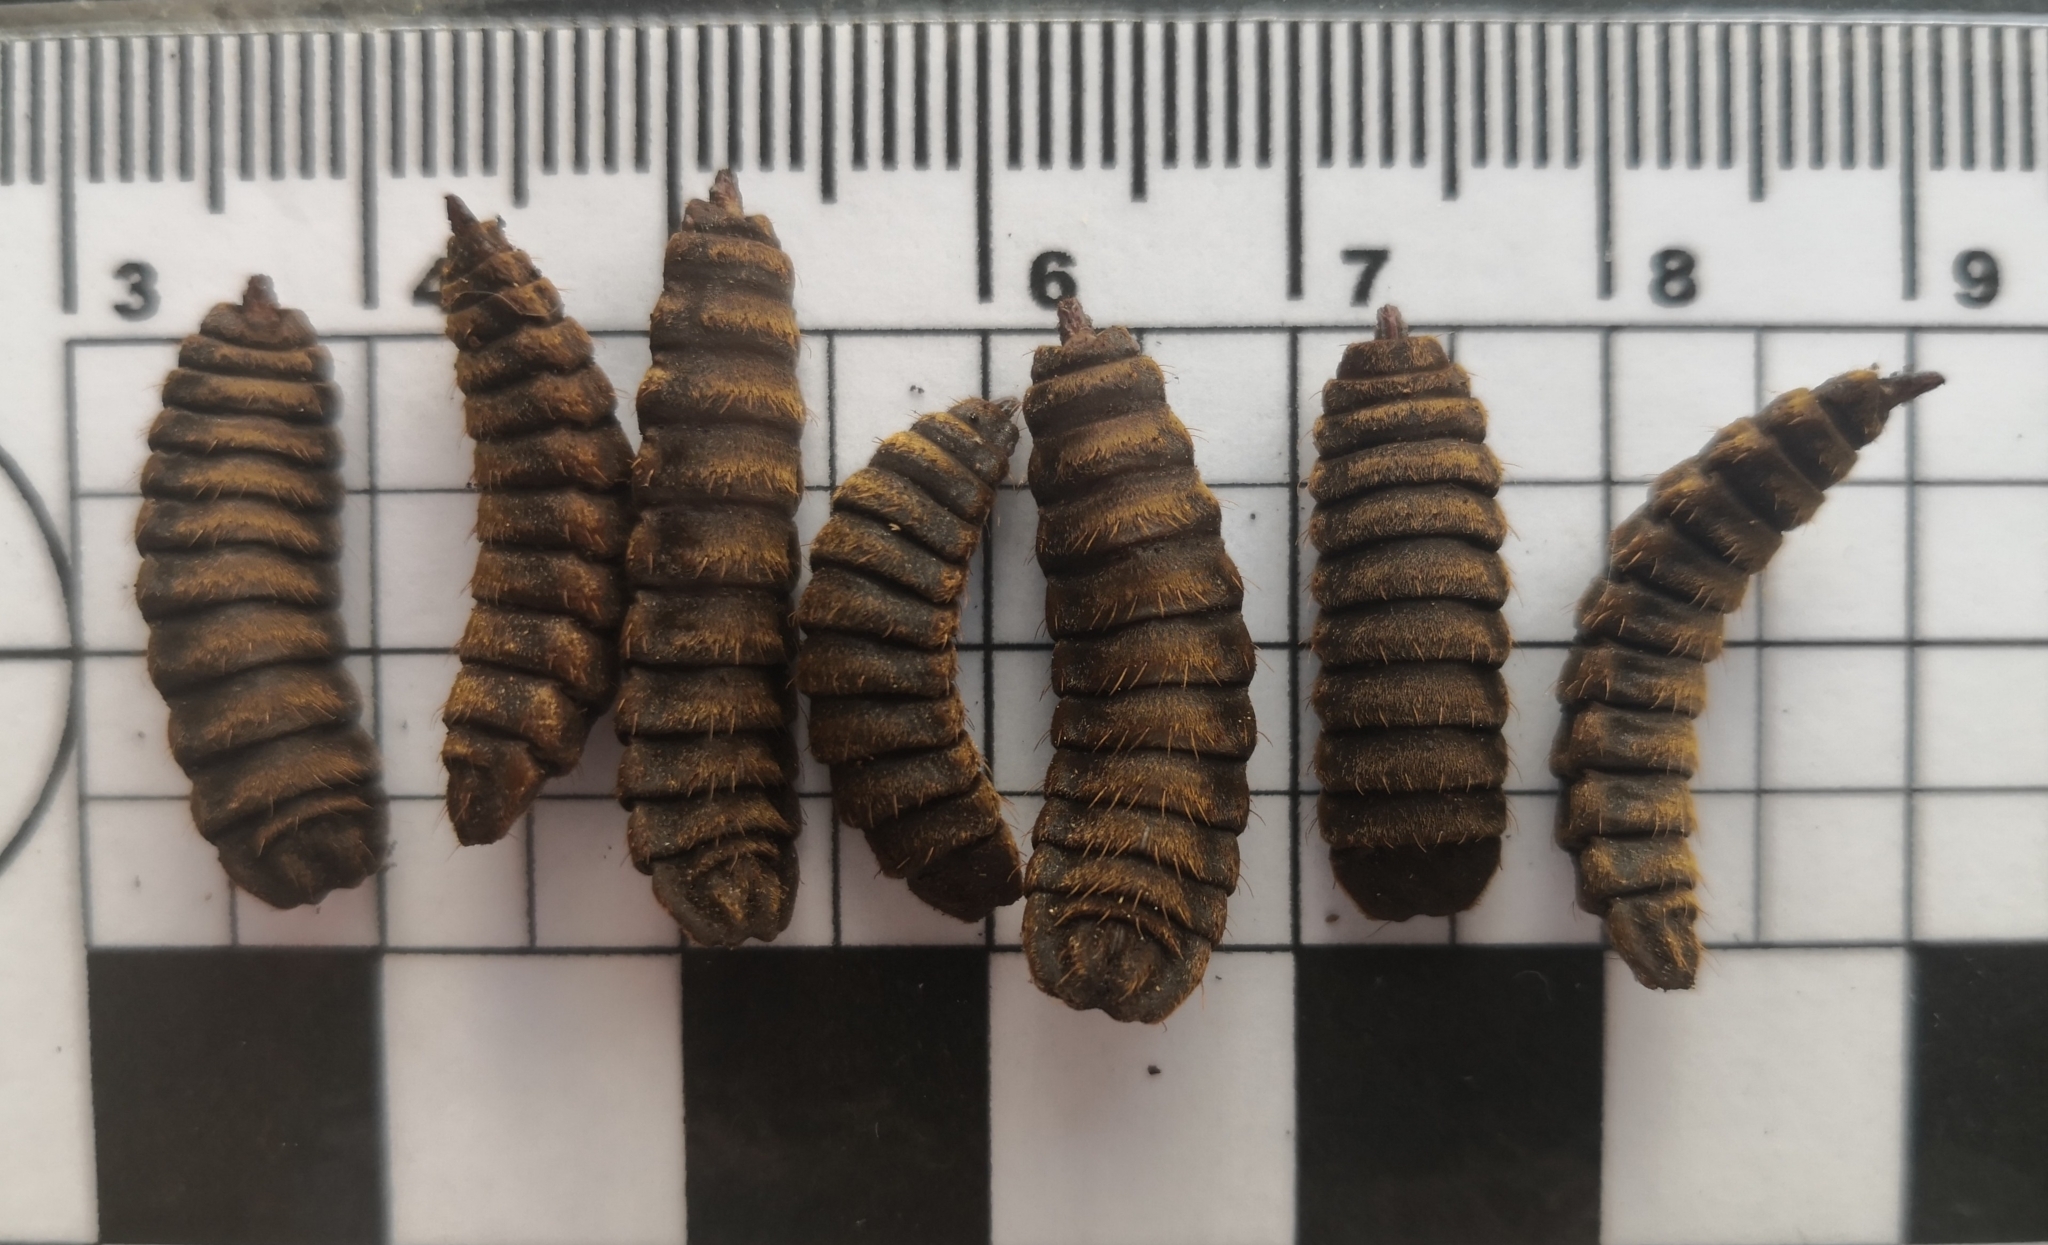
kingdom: Animalia
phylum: Arthropoda
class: Insecta
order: Diptera
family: Stratiomyidae
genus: Hermetia
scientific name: Hermetia illucens
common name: Black soldier fly
